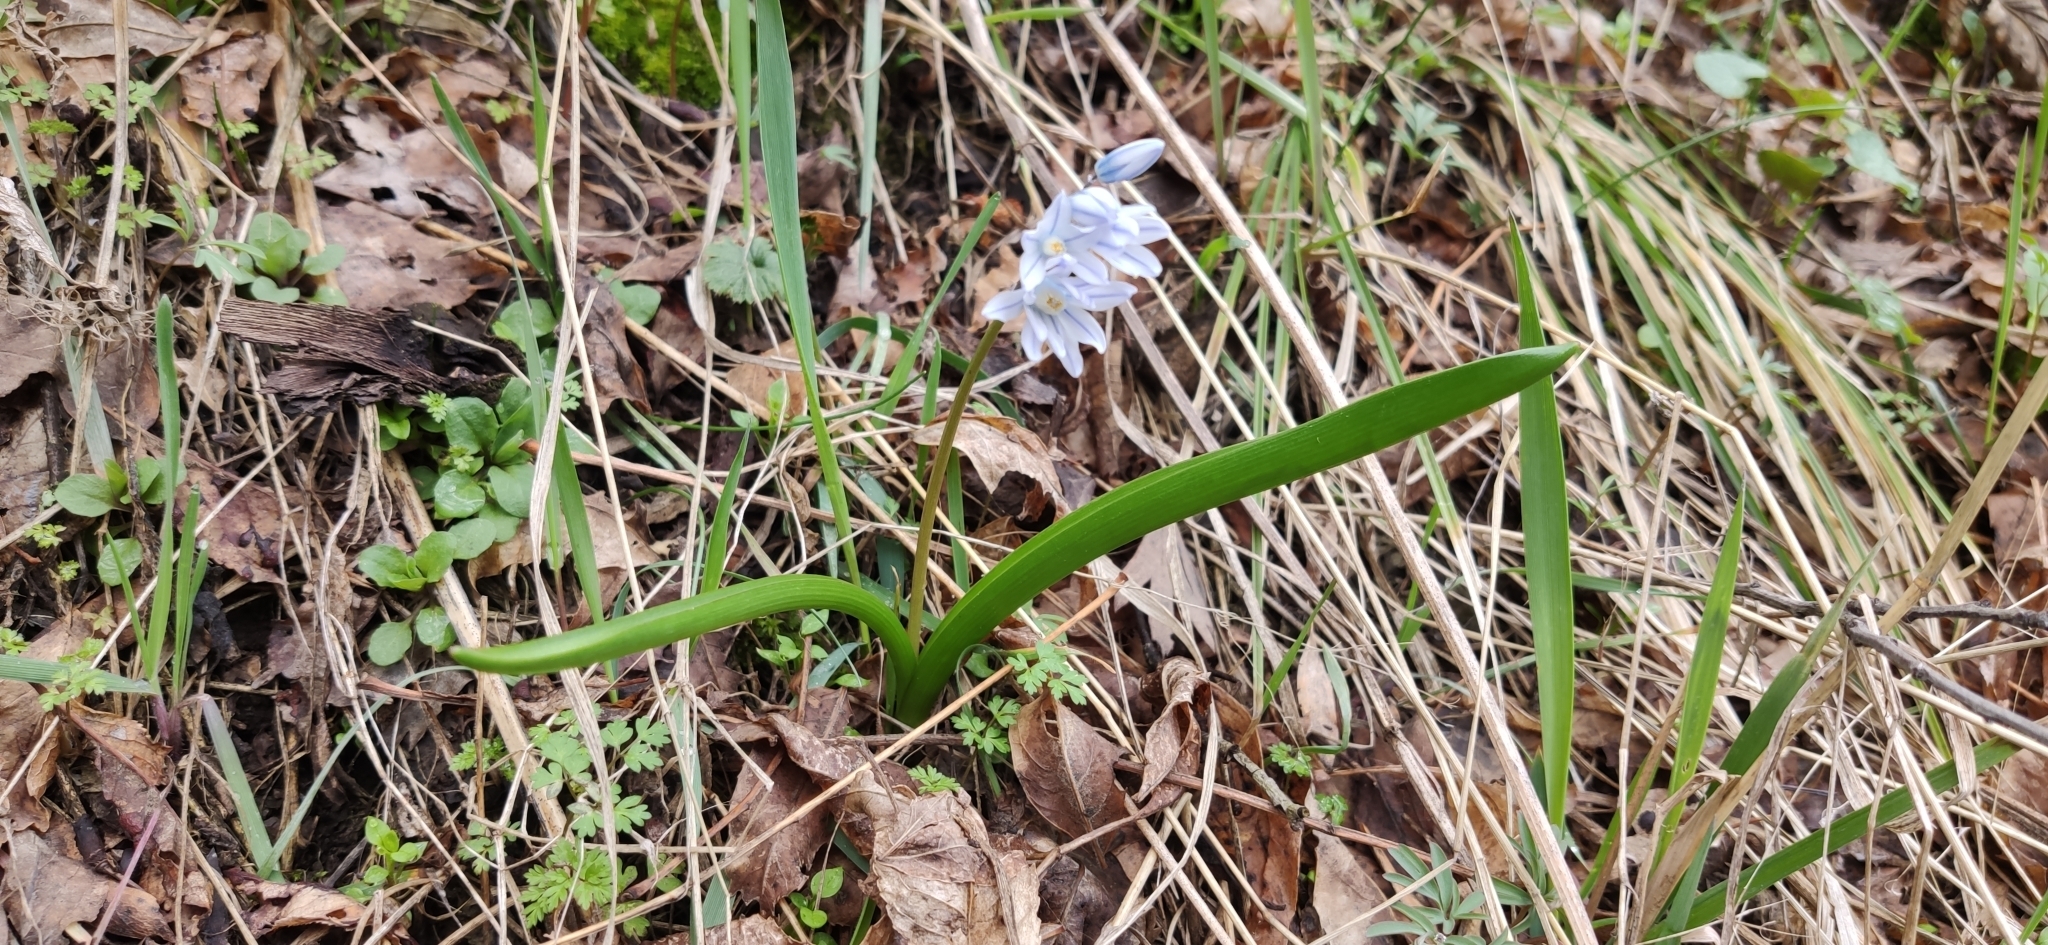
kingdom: Plantae
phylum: Tracheophyta
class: Liliopsida
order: Asparagales
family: Asparagaceae
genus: Puschkinia
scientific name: Puschkinia scilloides
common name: Striped squill
